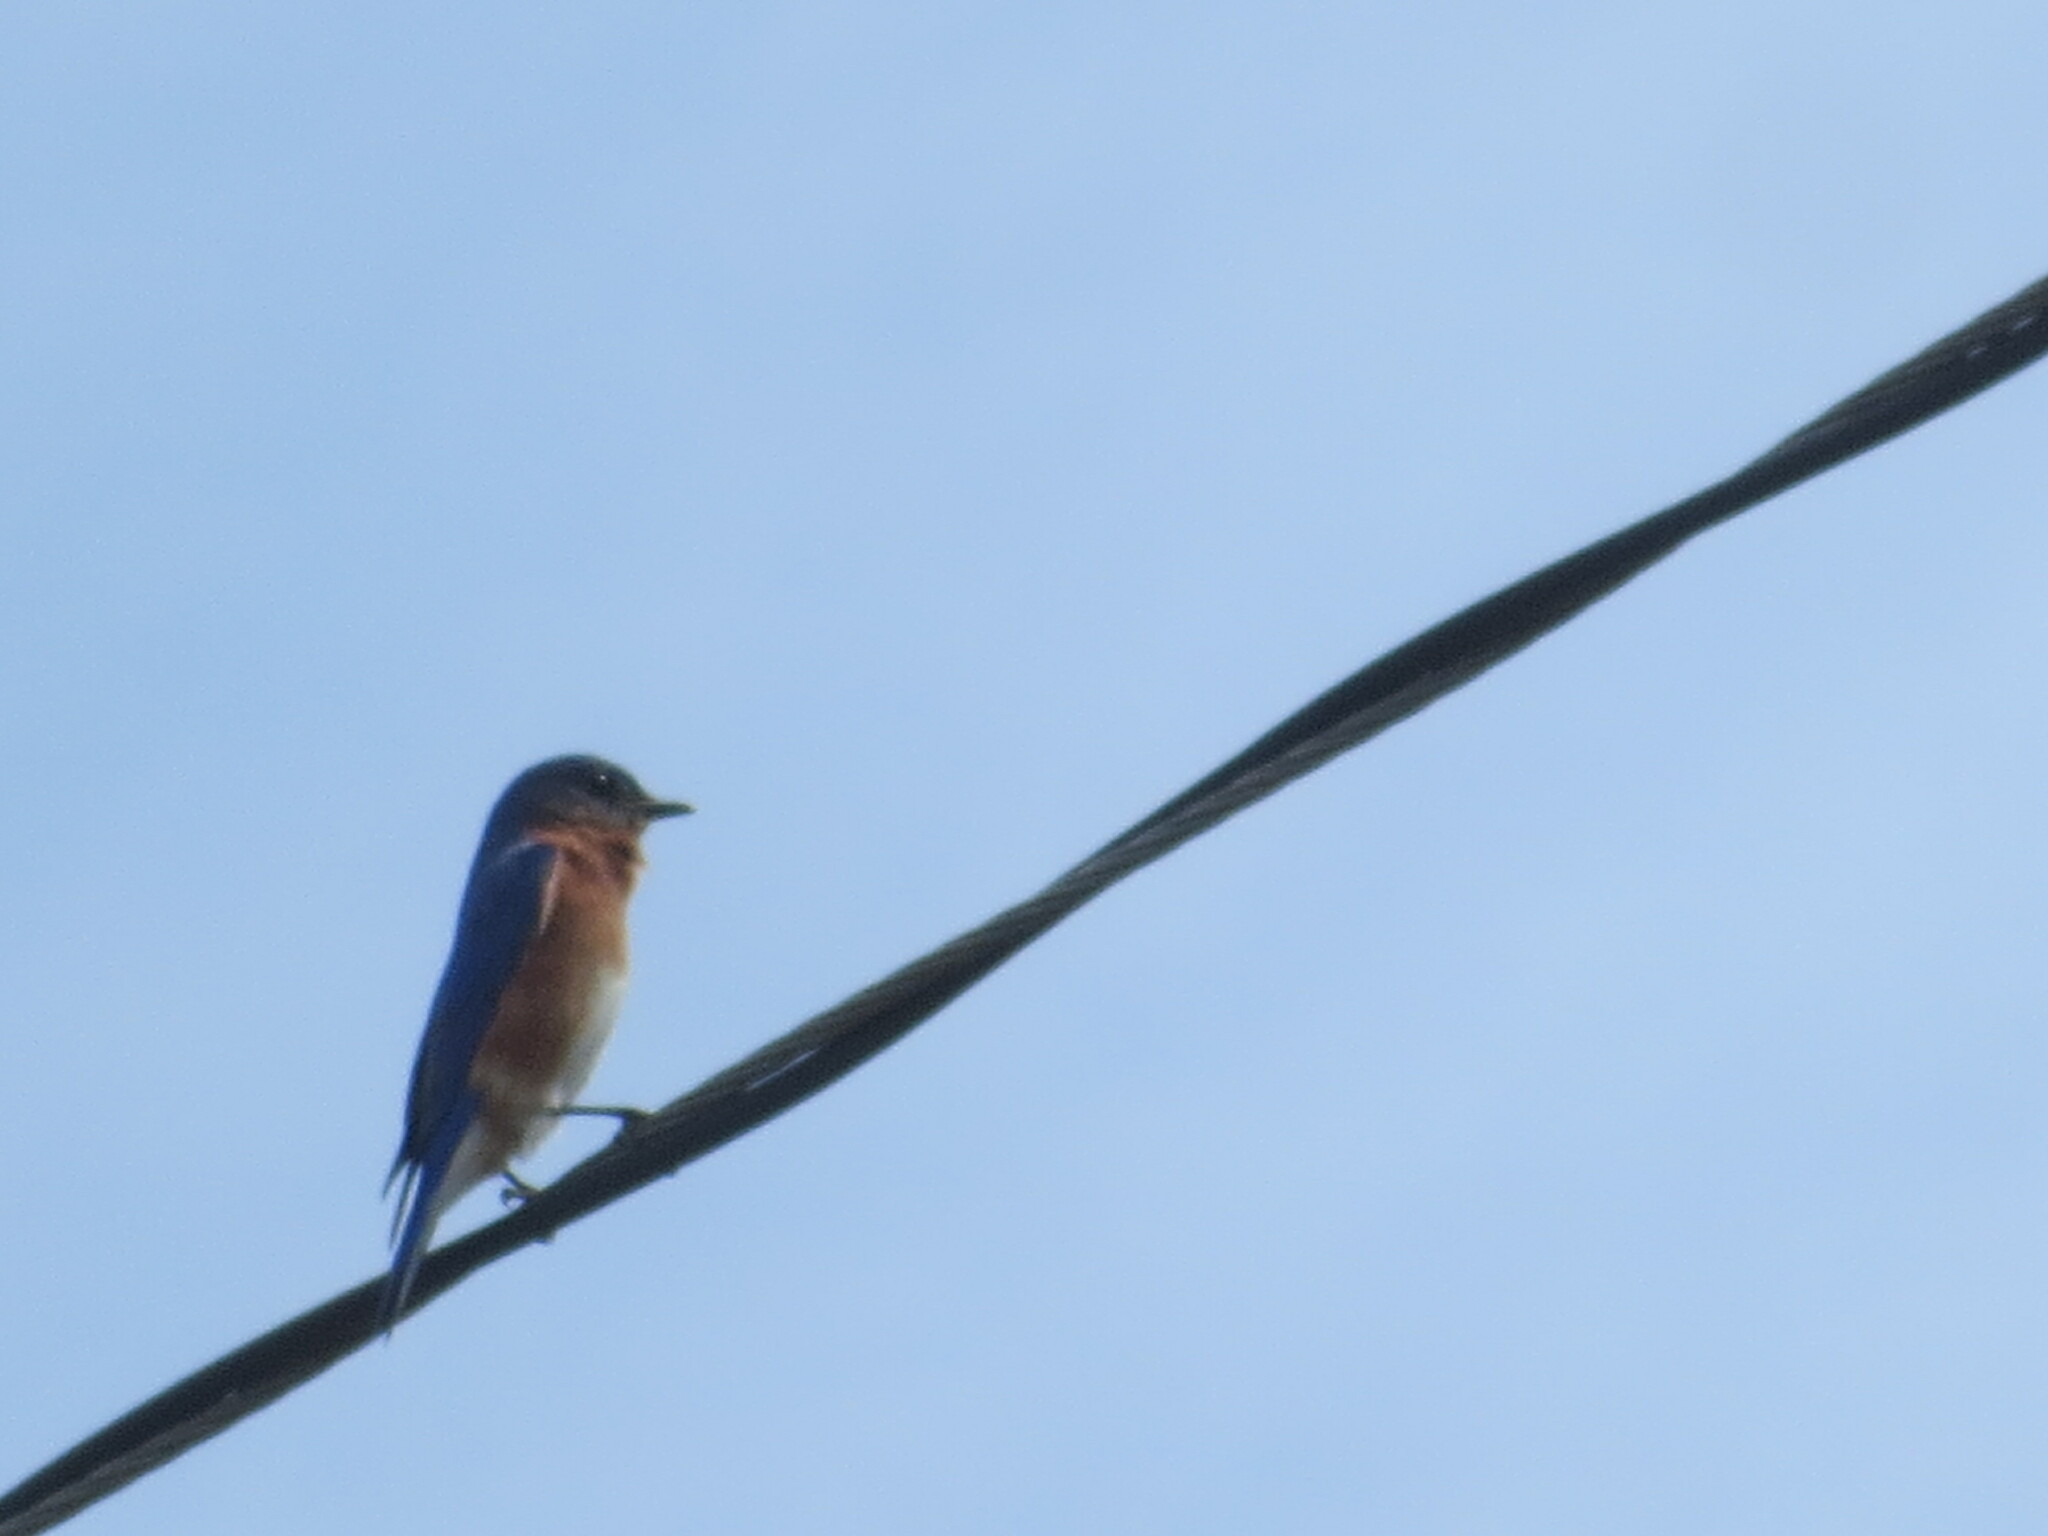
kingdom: Animalia
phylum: Chordata
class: Aves
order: Passeriformes
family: Turdidae
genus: Sialia
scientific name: Sialia sialis
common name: Eastern bluebird
